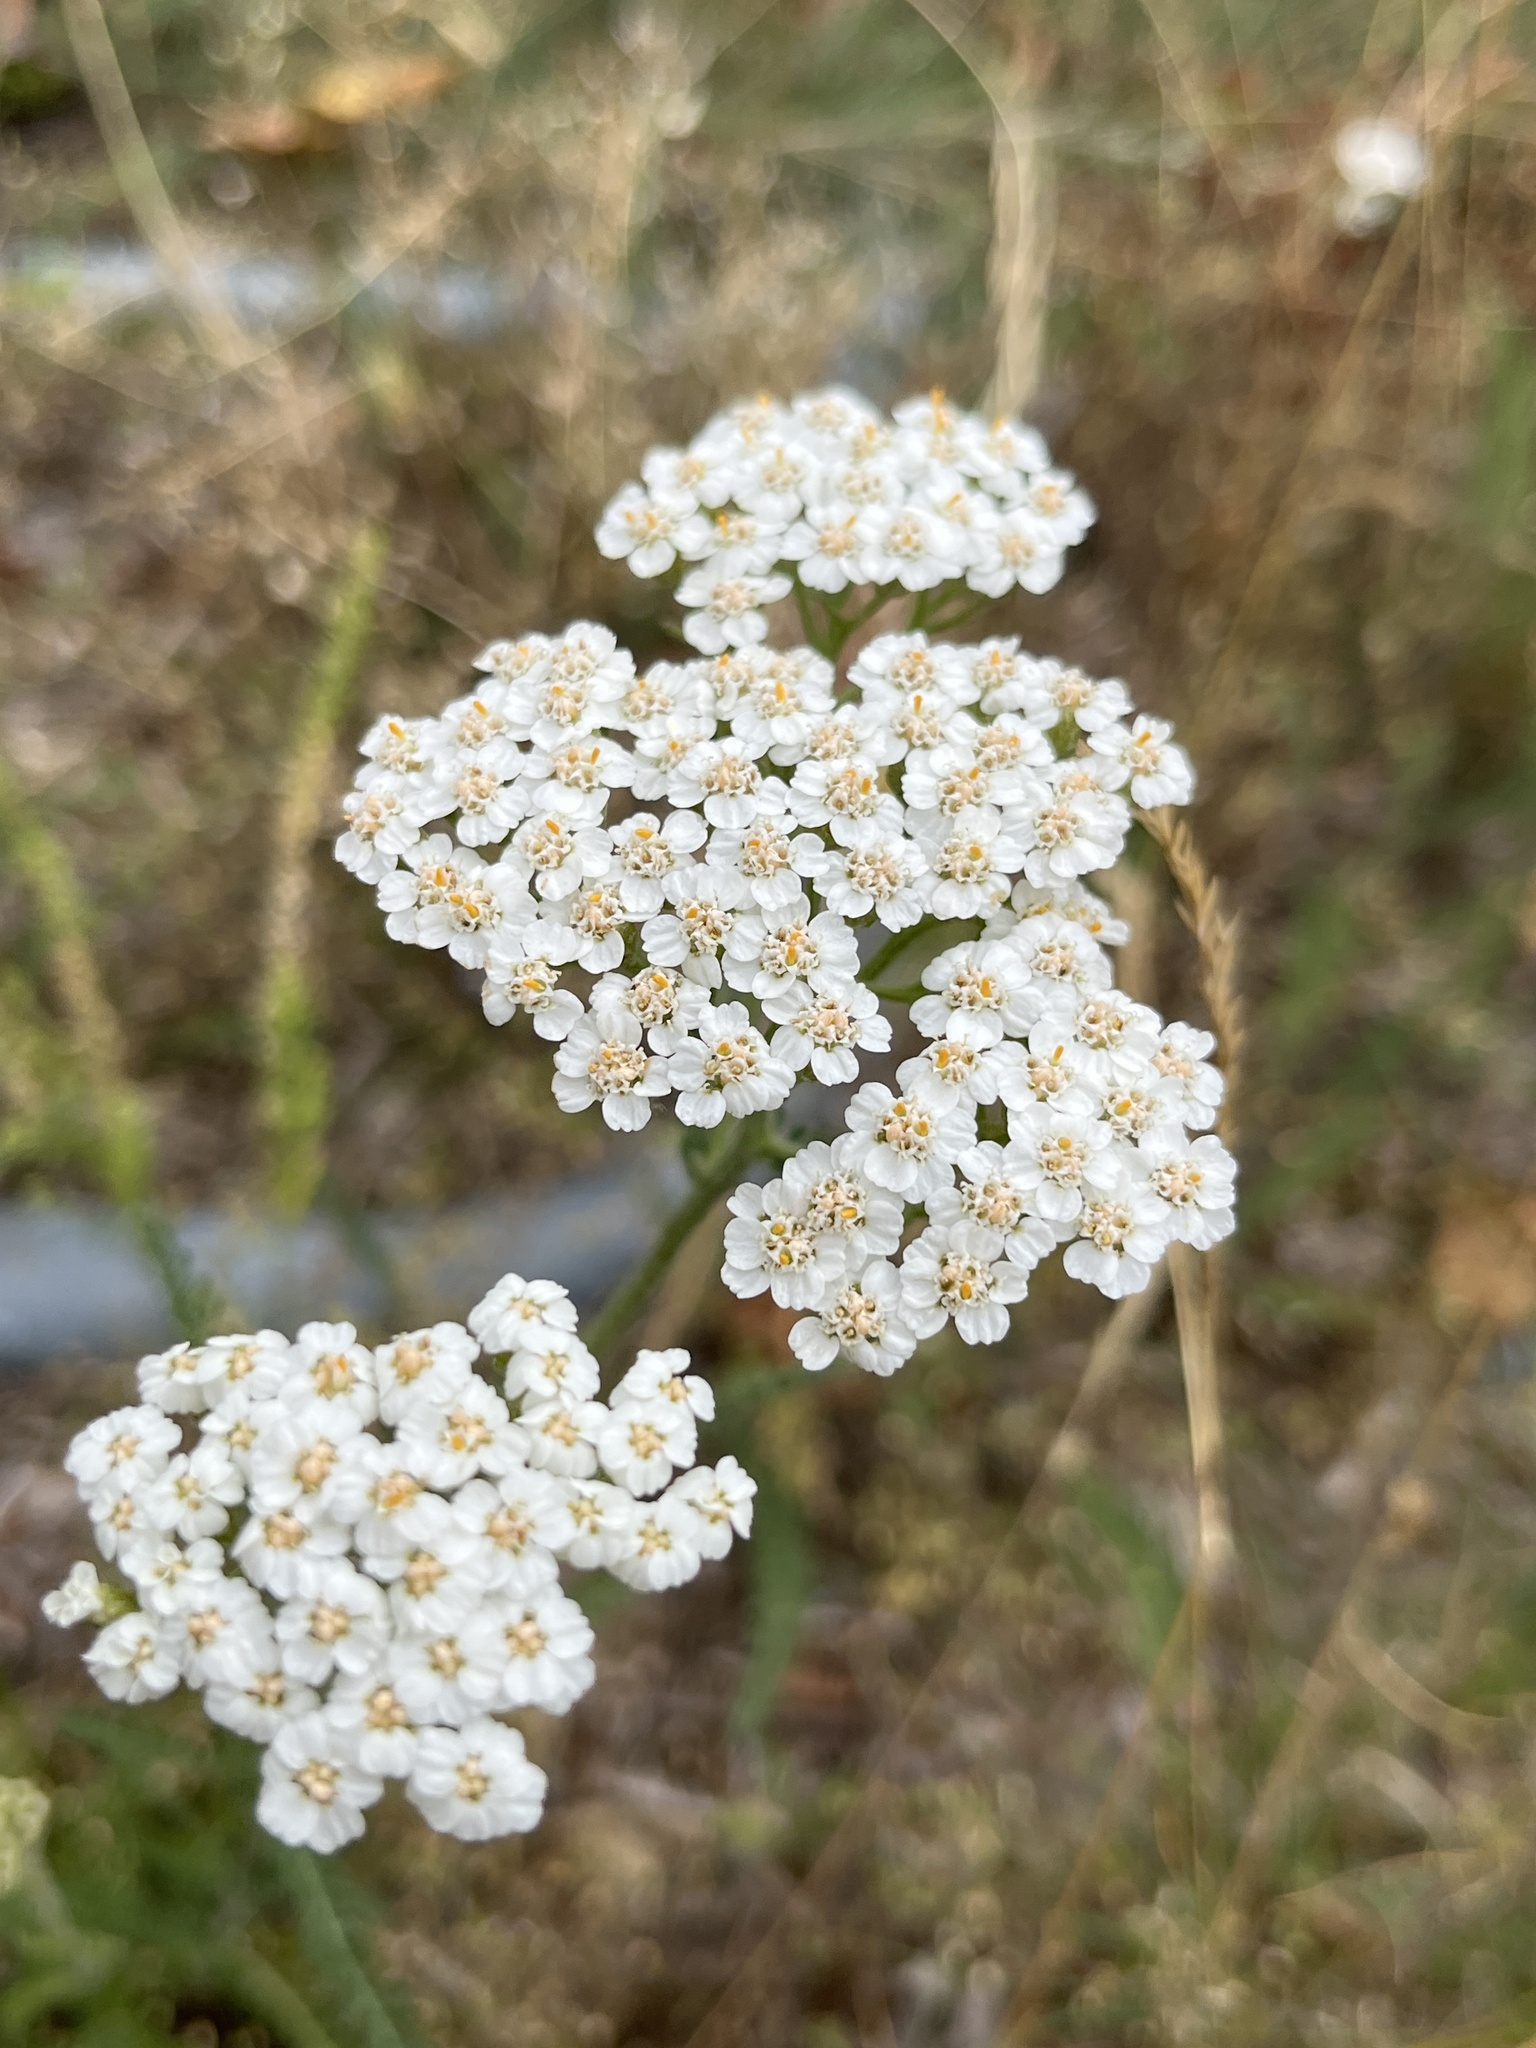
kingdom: Plantae
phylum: Tracheophyta
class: Magnoliopsida
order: Asterales
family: Asteraceae
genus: Achillea
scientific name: Achillea millefolium
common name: Yarrow
